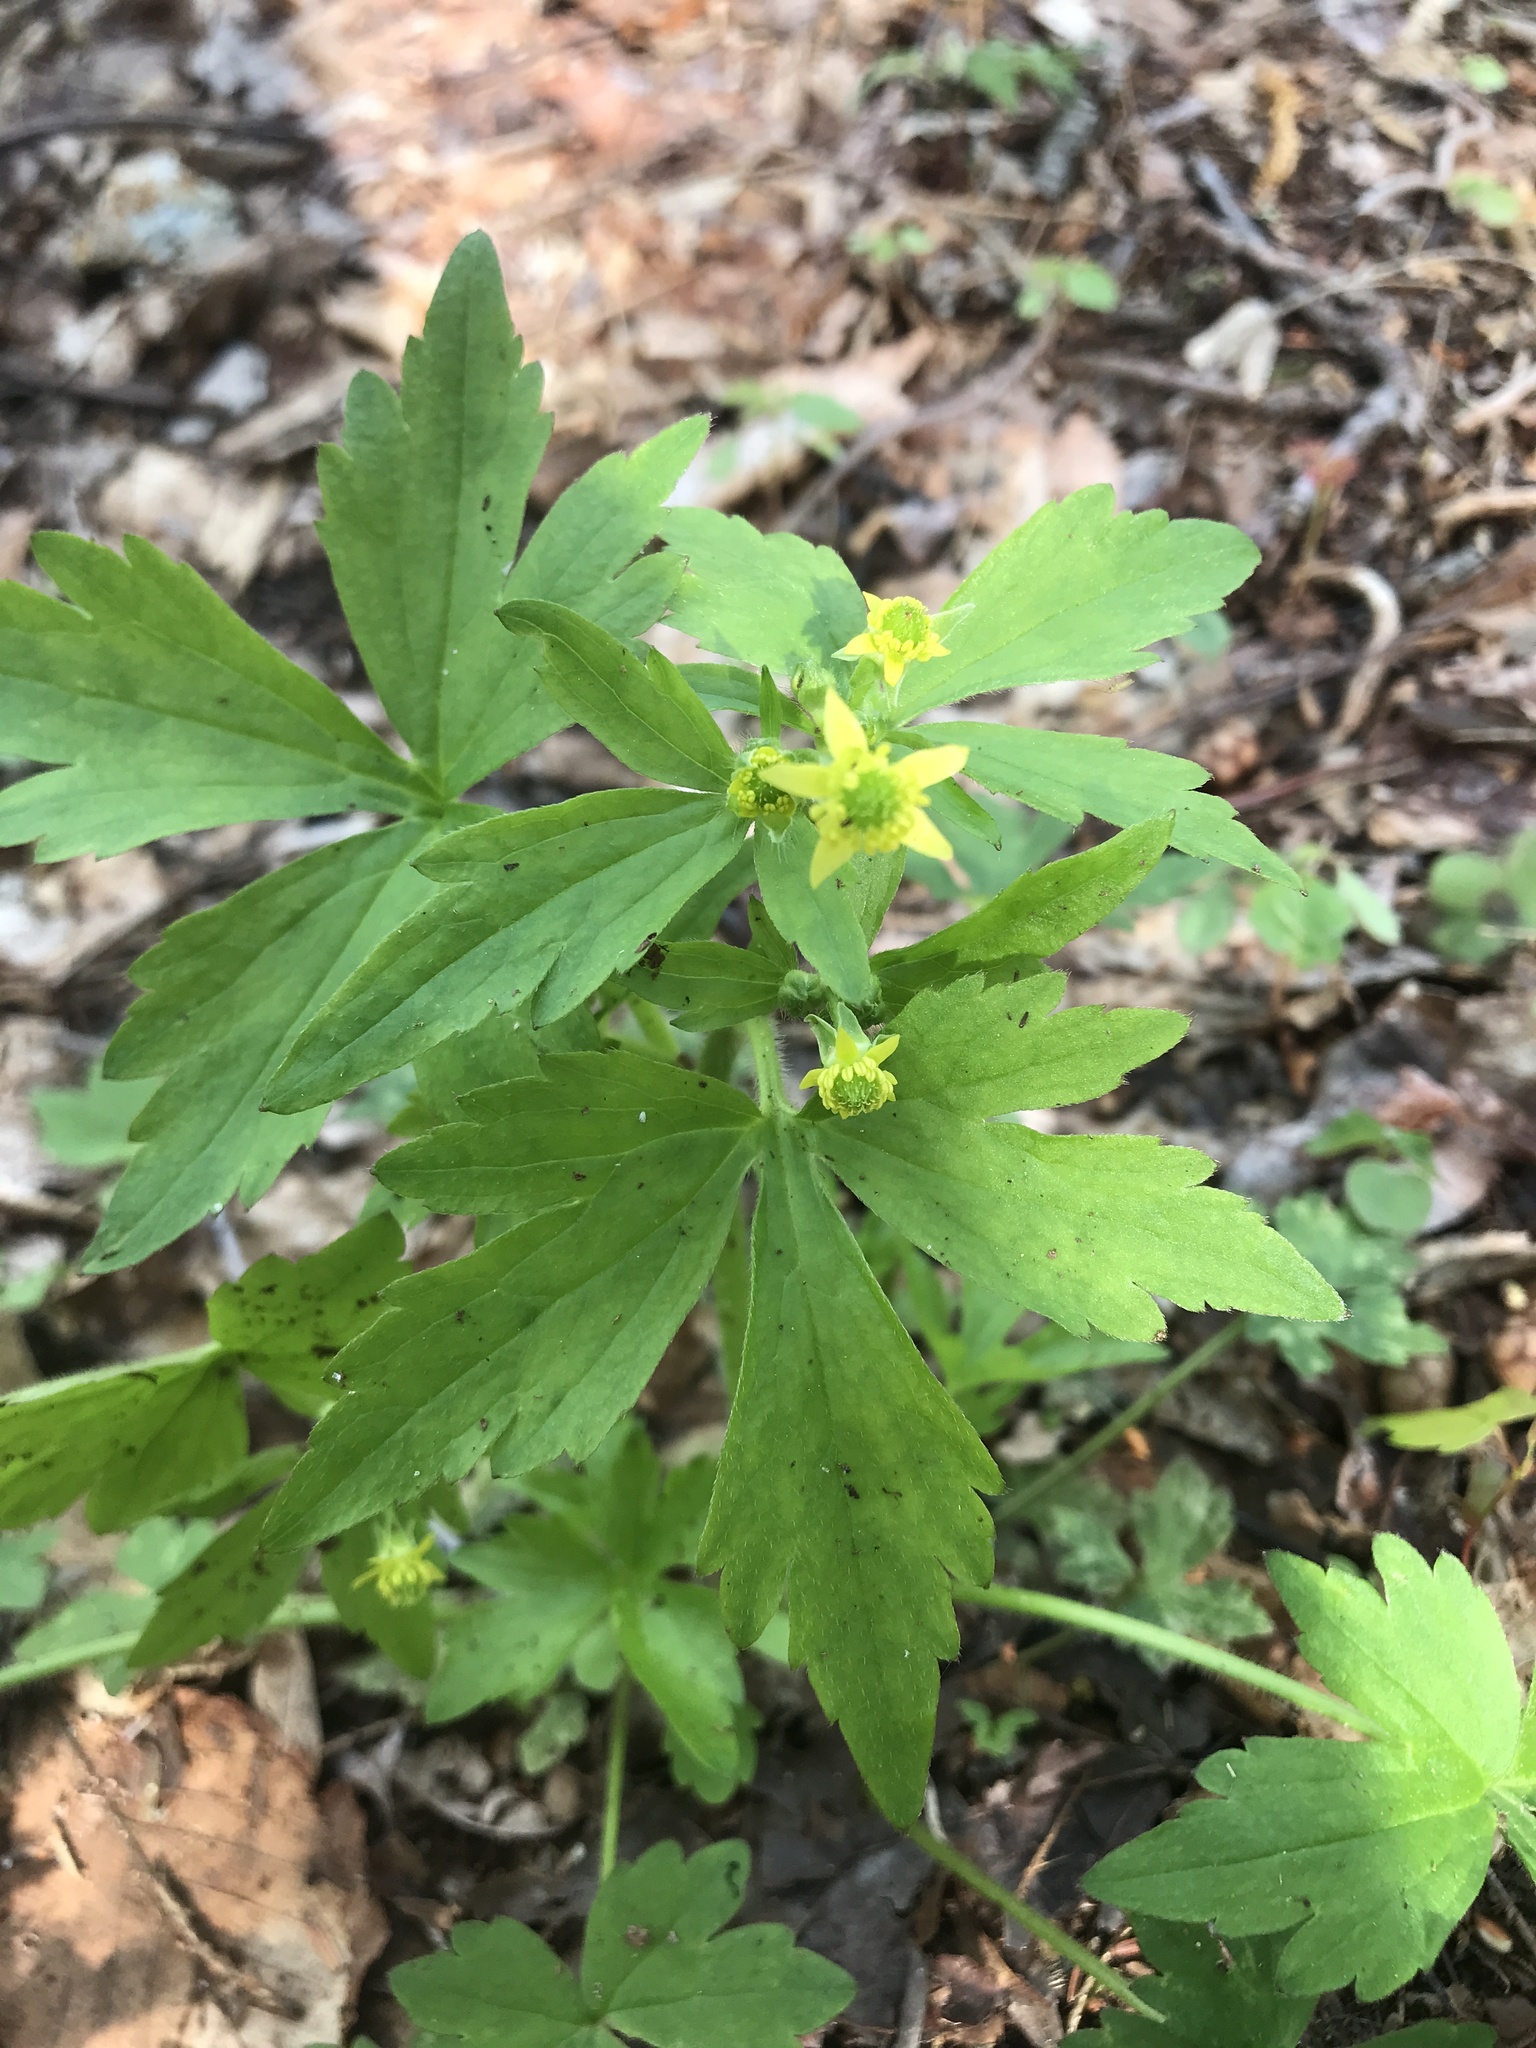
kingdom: Plantae
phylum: Tracheophyta
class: Magnoliopsida
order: Ranunculales
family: Ranunculaceae
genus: Ranunculus
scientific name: Ranunculus recurvatus
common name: Blisterwort
